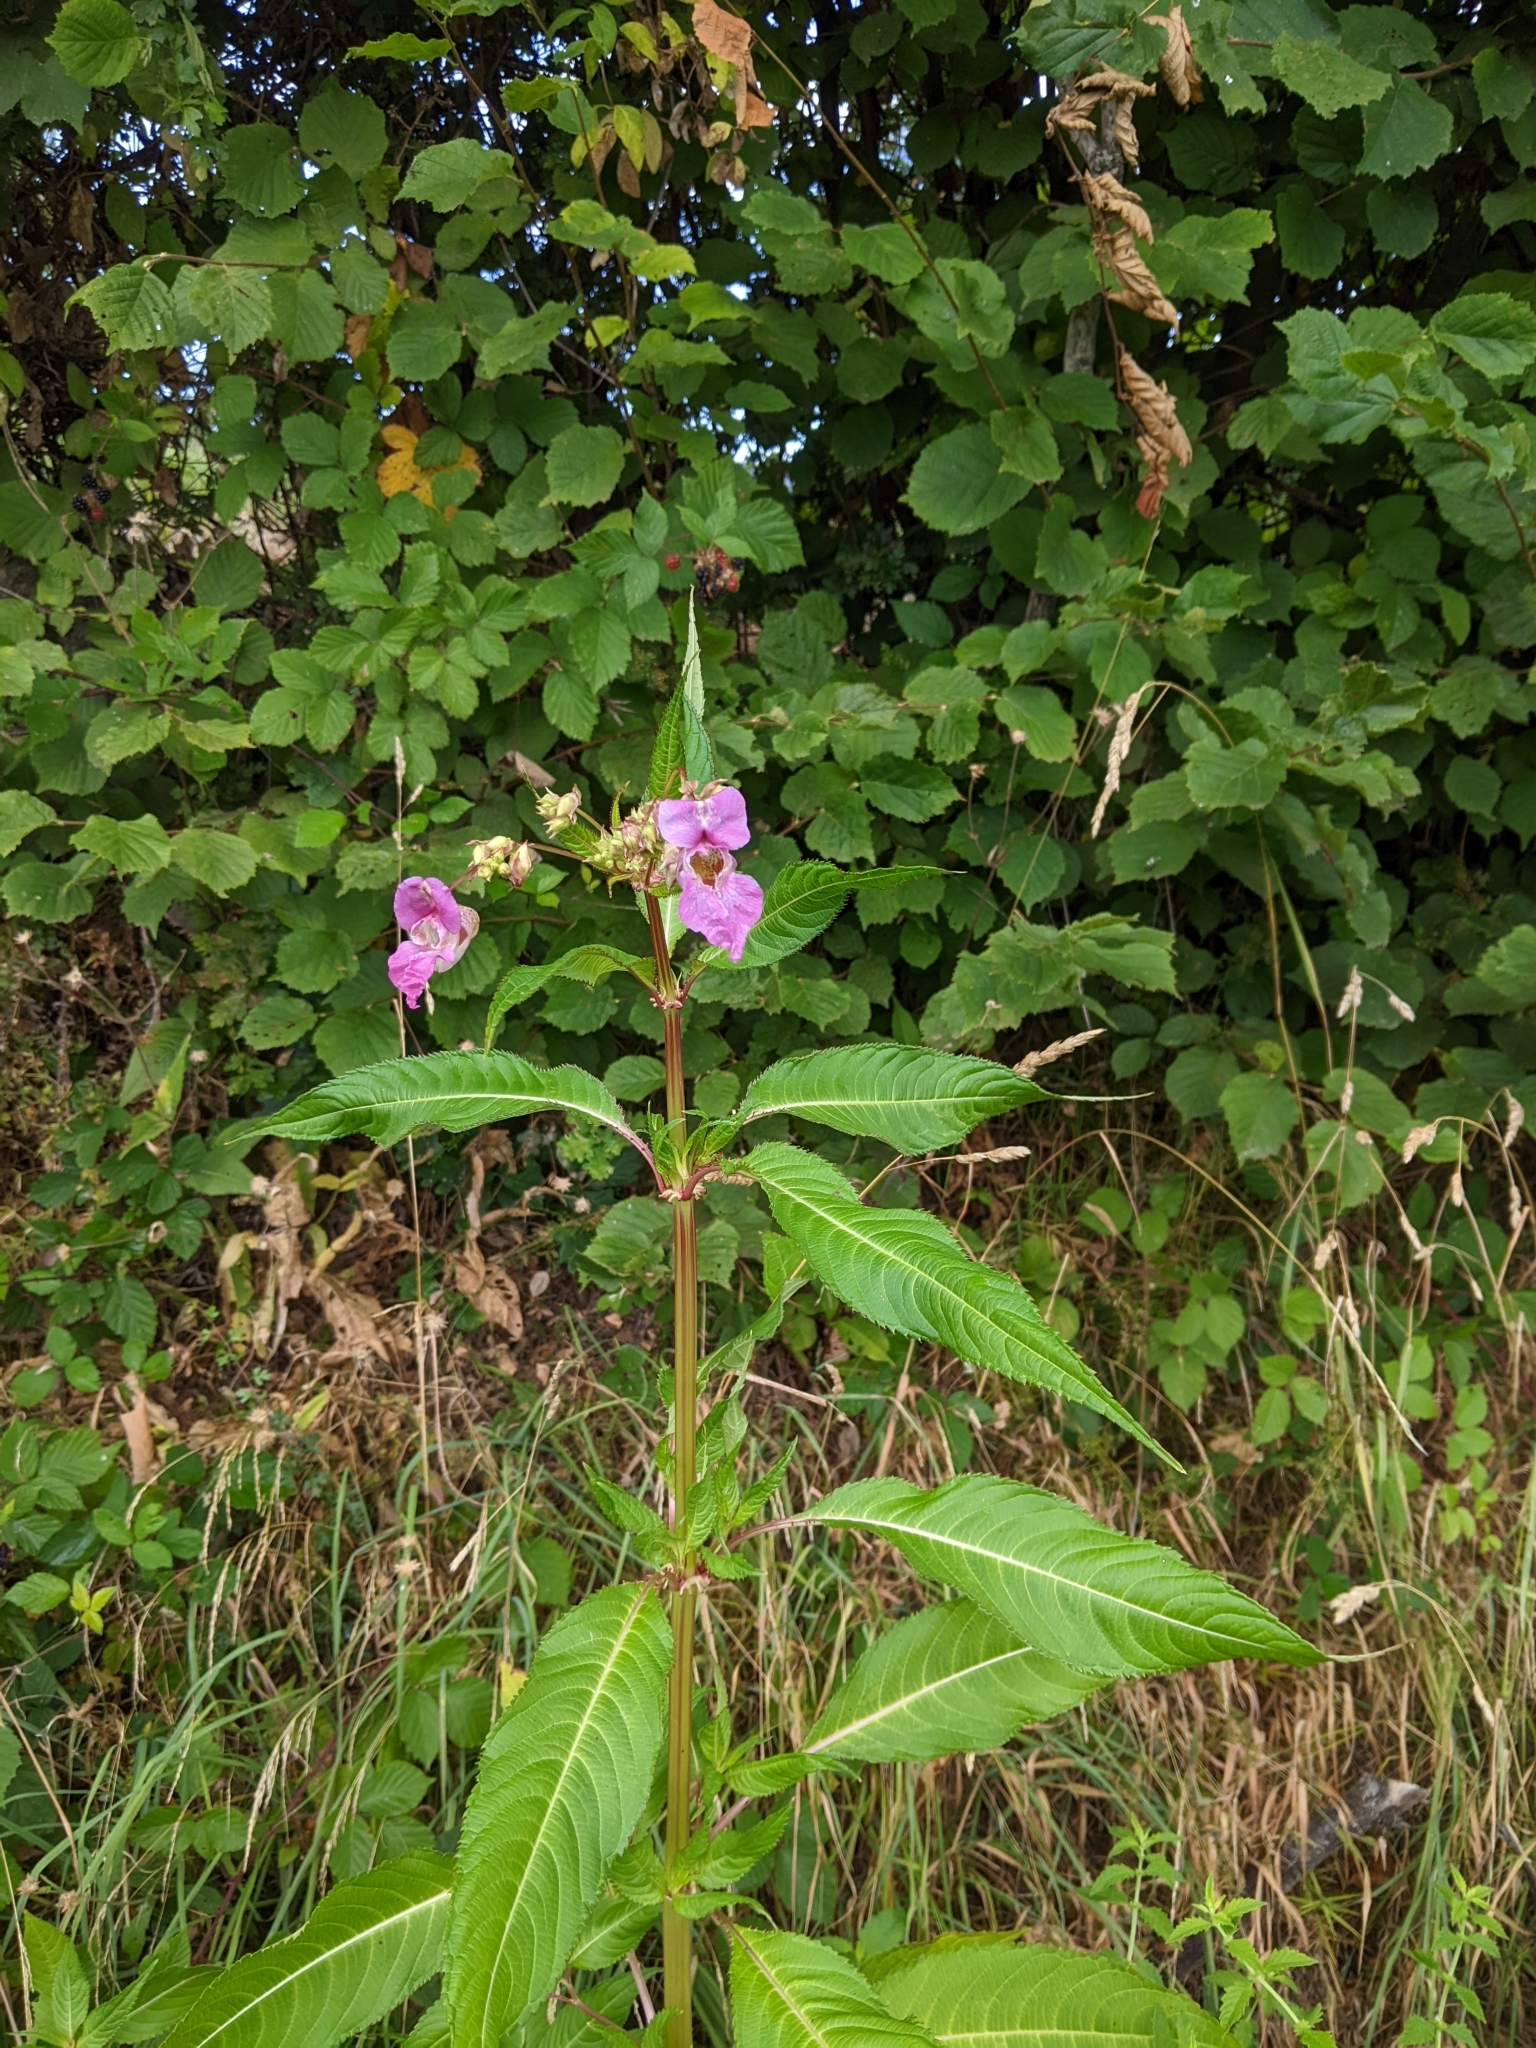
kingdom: Plantae
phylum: Tracheophyta
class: Magnoliopsida
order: Ericales
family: Balsaminaceae
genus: Impatiens
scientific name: Impatiens glandulifera
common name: Himalayan balsam
